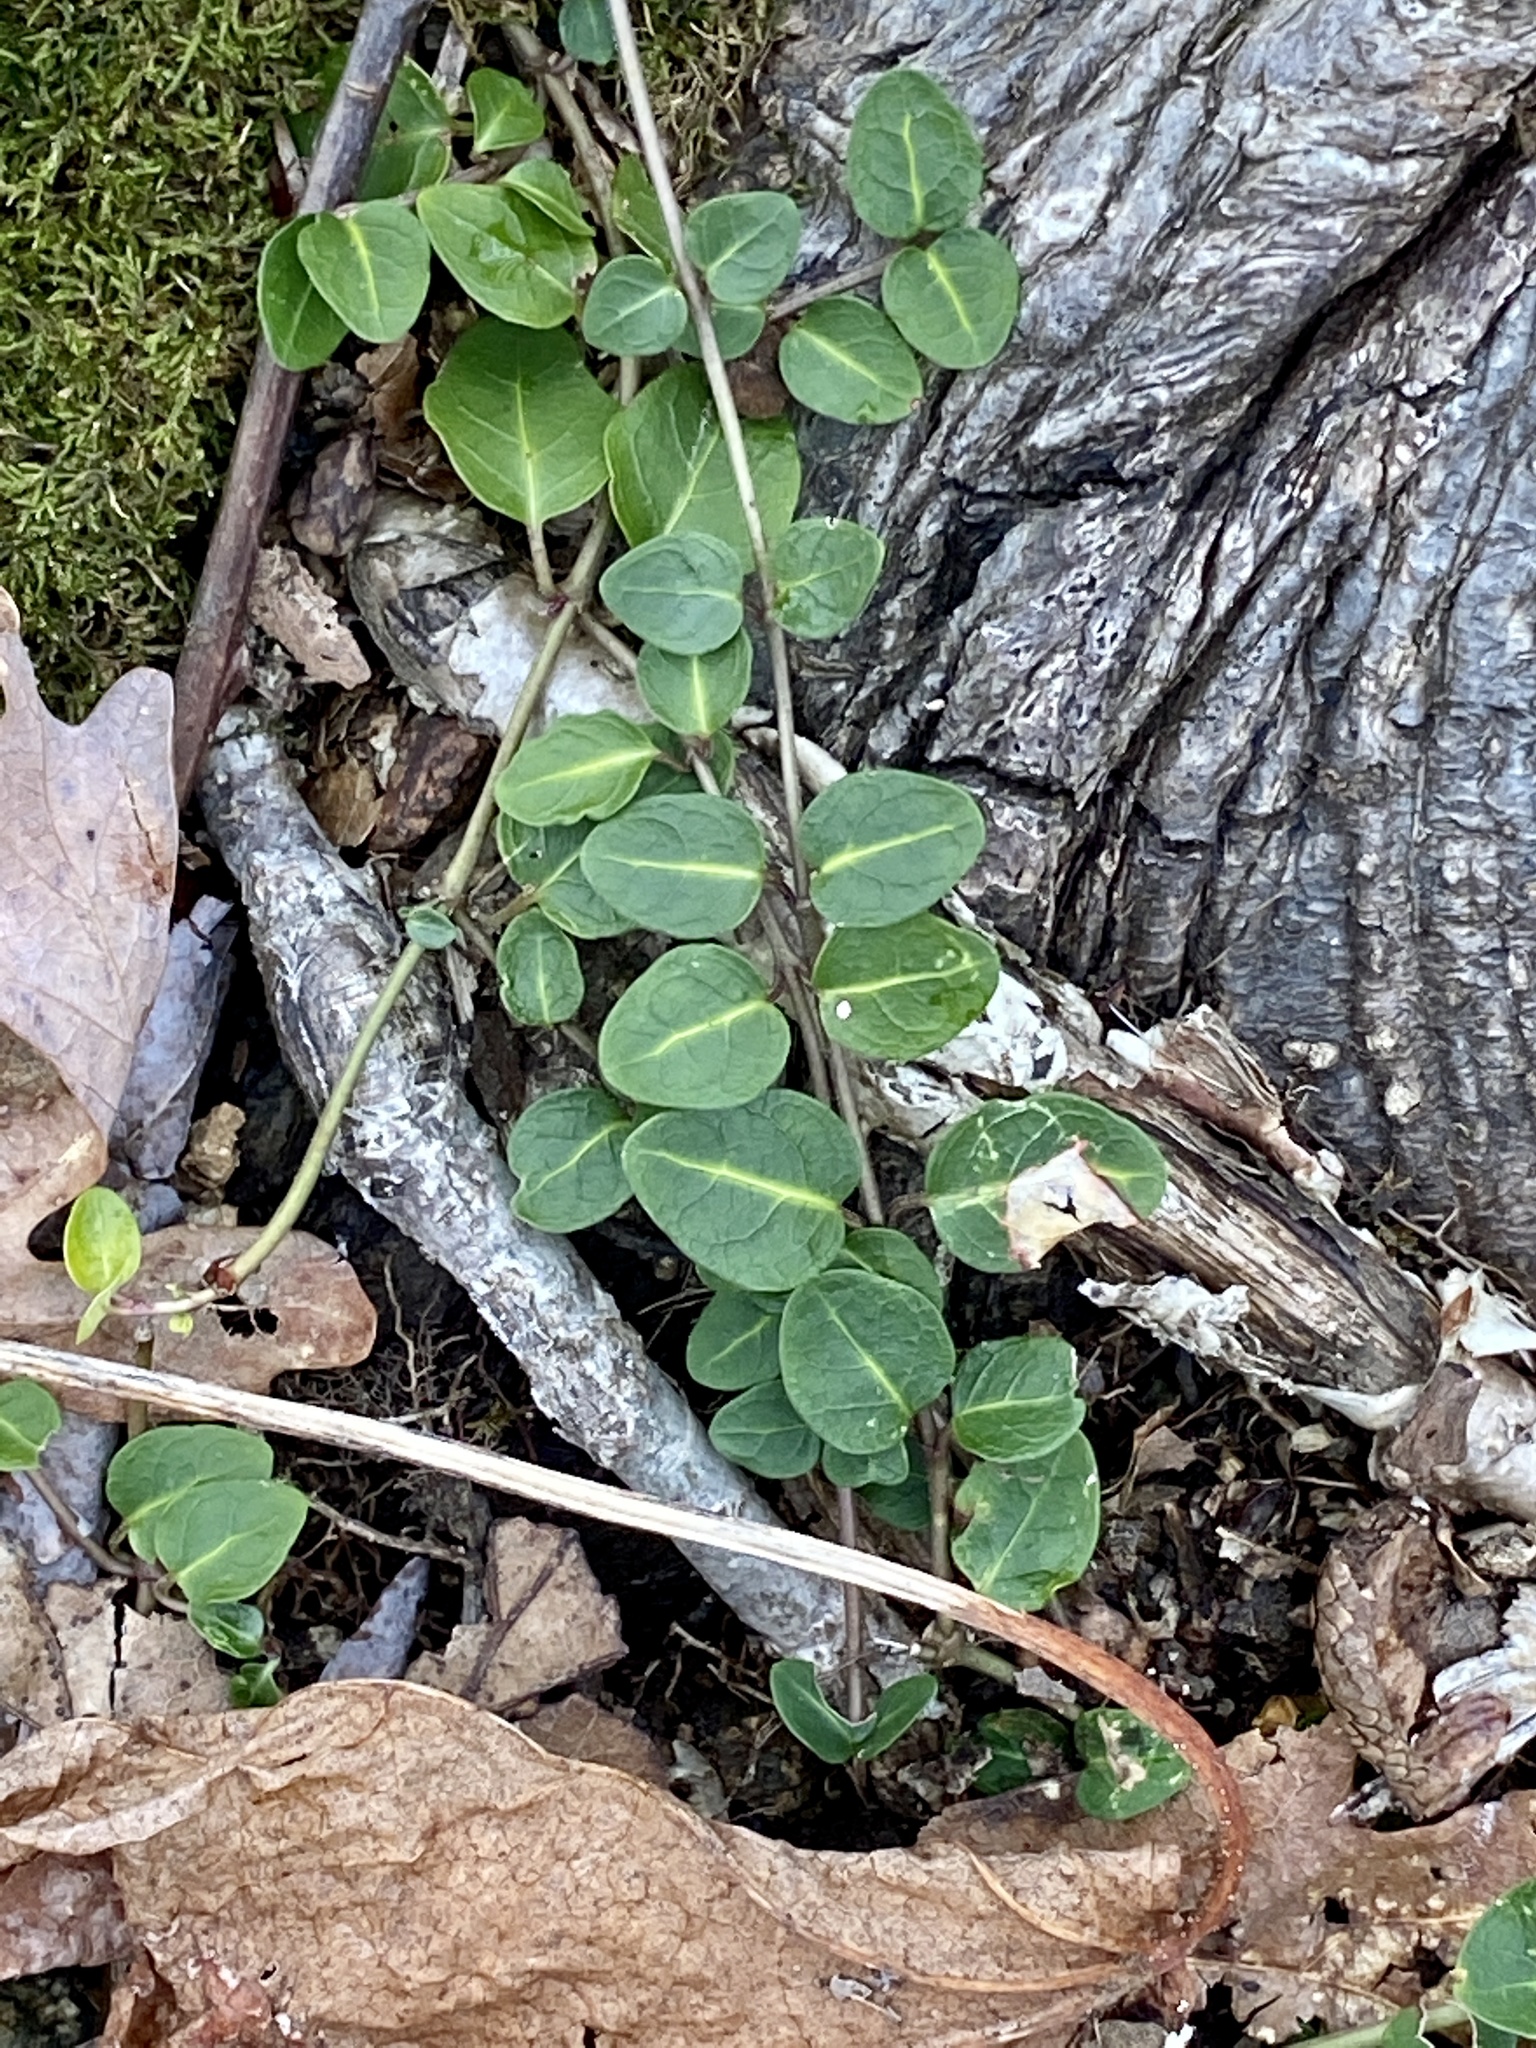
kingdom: Plantae
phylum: Tracheophyta
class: Magnoliopsida
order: Gentianales
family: Rubiaceae
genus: Mitchella
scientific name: Mitchella repens
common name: Partridge-berry
